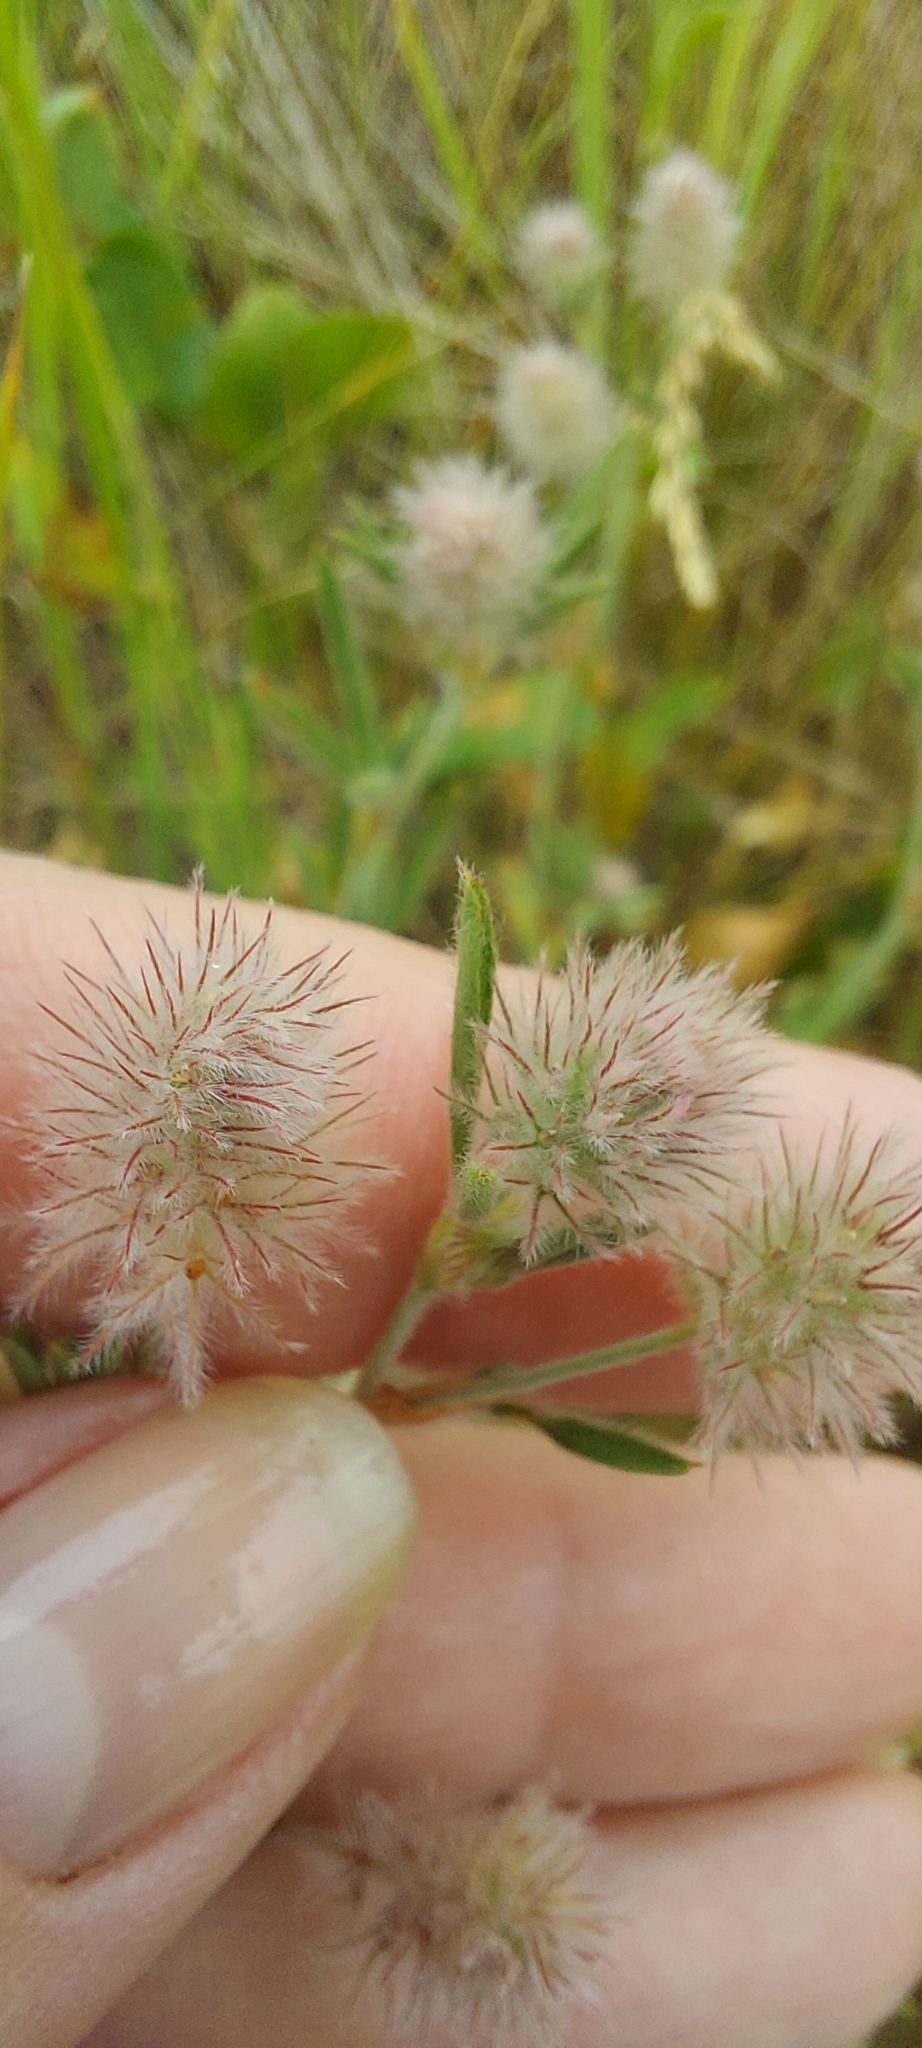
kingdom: Plantae
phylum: Tracheophyta
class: Magnoliopsida
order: Fabales
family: Fabaceae
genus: Trifolium
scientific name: Trifolium arvense
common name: Hare's-foot clover
